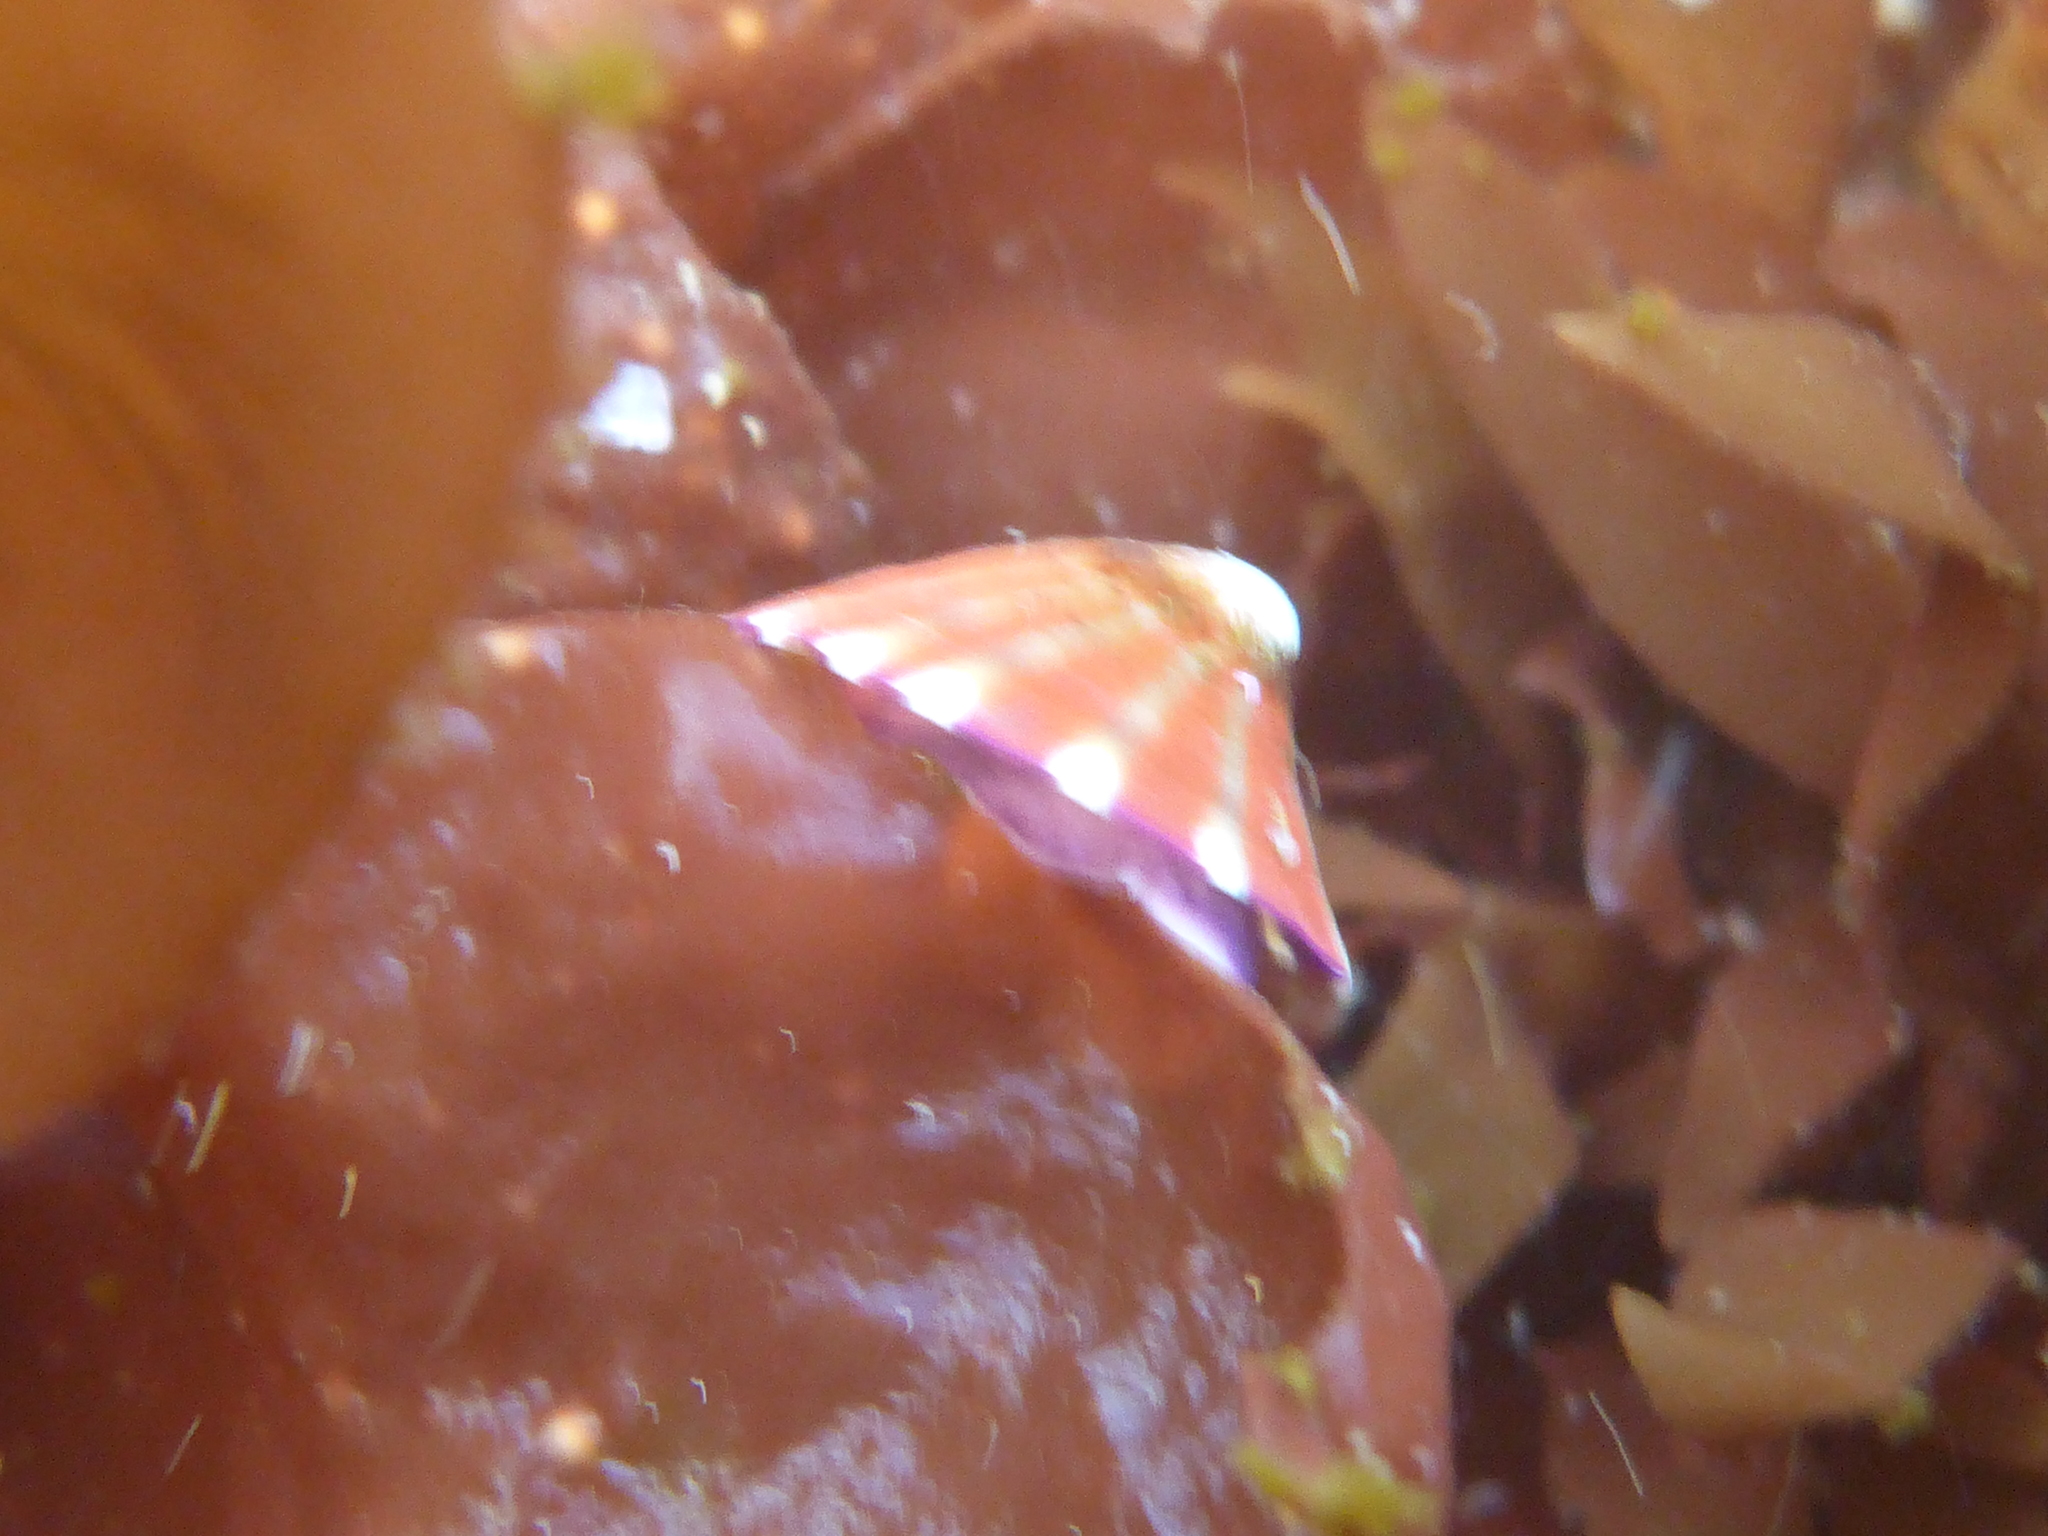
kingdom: Animalia
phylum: Mollusca
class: Gastropoda
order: Siphonariida
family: Siphonariidae
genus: Williamia
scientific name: Williamia peltoides
